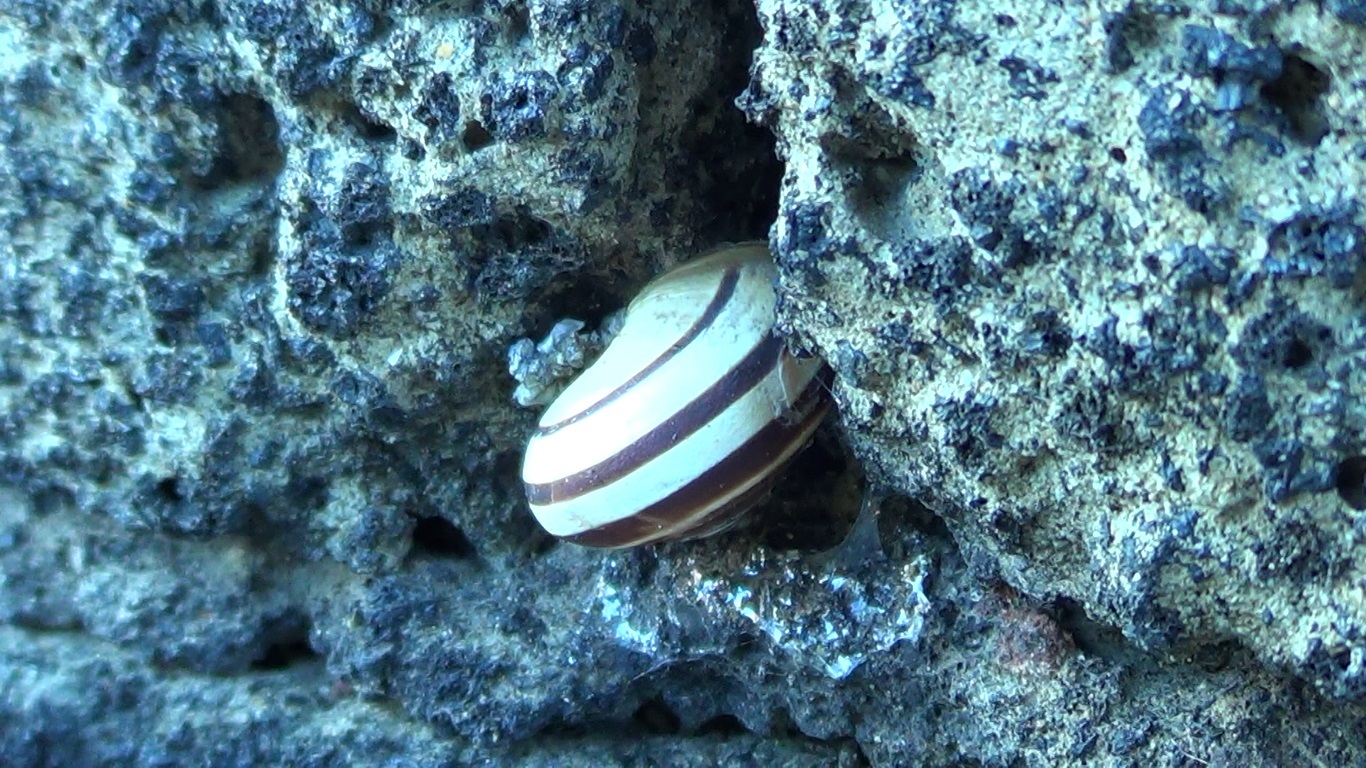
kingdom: Animalia
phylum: Mollusca
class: Gastropoda
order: Stylommatophora
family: Helicidae
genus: Eobania
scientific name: Eobania vermiculata
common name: Chocolateband snail
